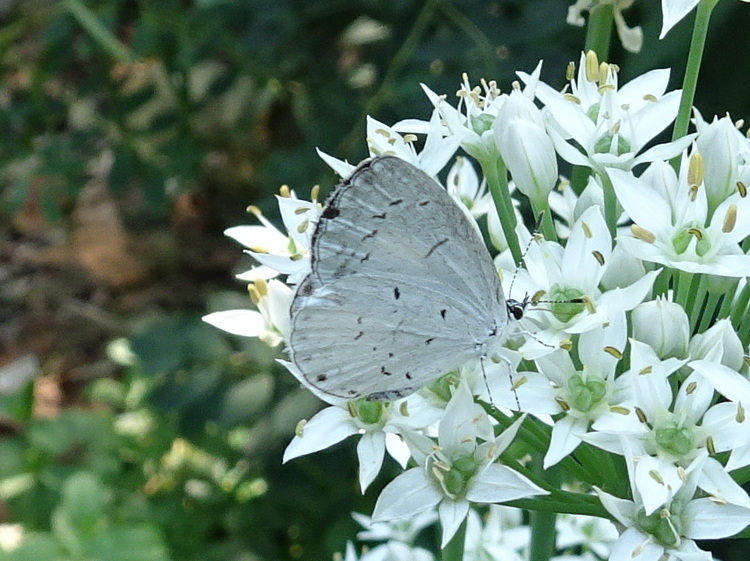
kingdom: Animalia
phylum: Arthropoda
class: Insecta
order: Lepidoptera
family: Lycaenidae
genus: Cyaniris
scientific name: Cyaniris neglecta
